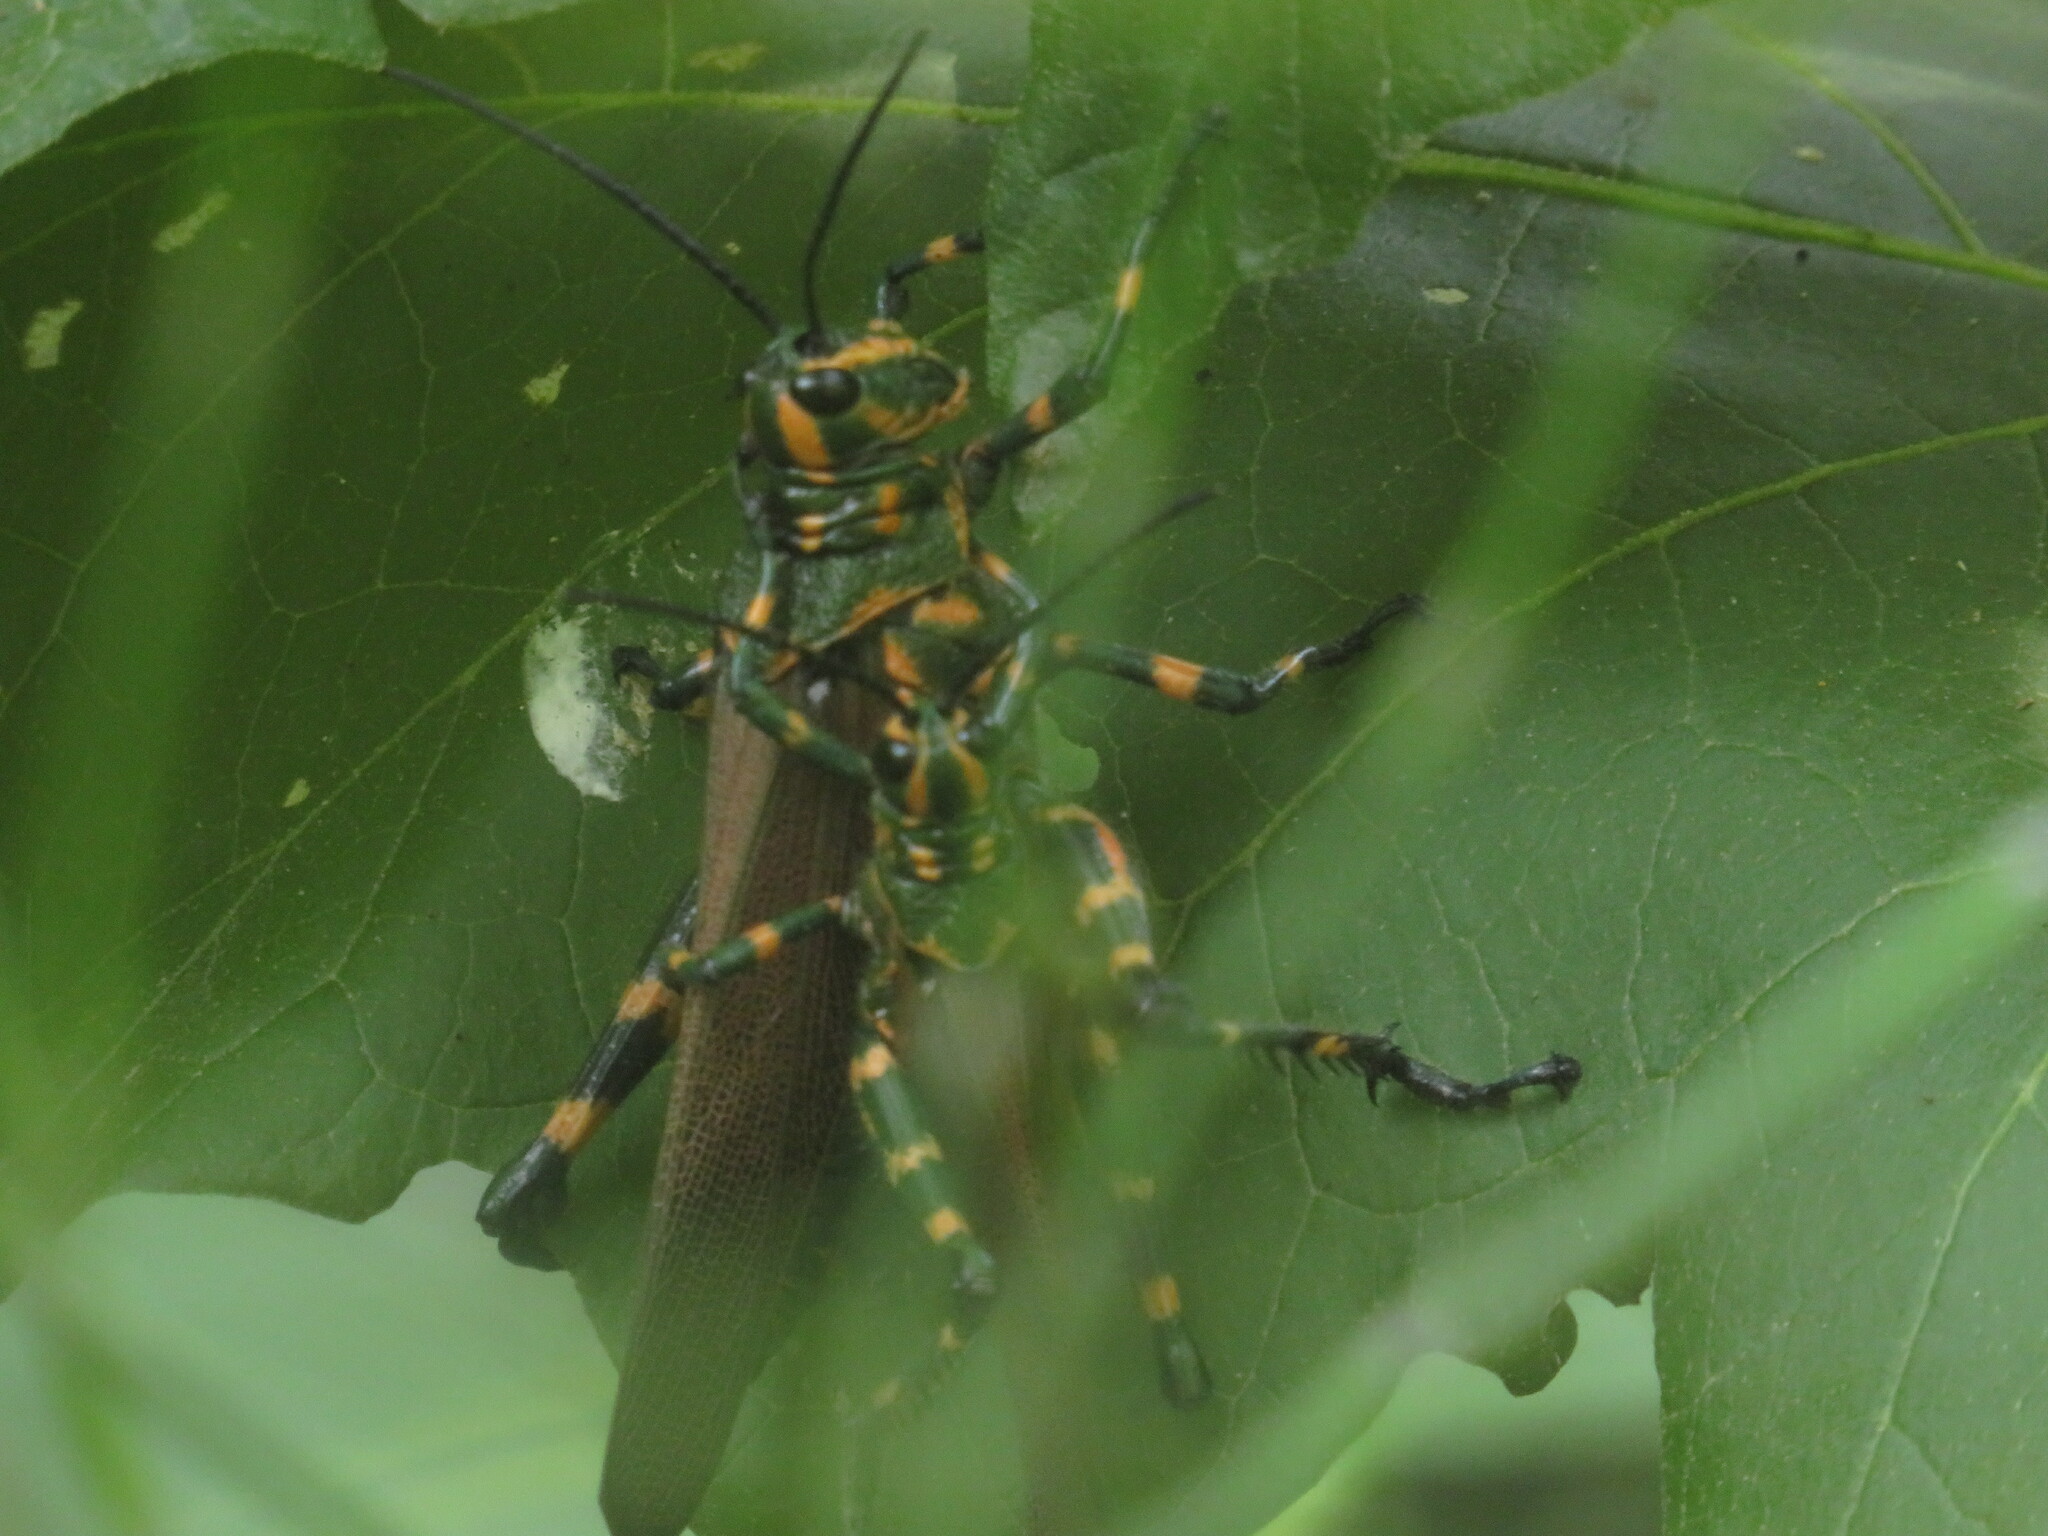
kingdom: Animalia
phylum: Arthropoda
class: Insecta
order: Orthoptera
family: Romaleidae
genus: Chromacris
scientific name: Chromacris speciosa
